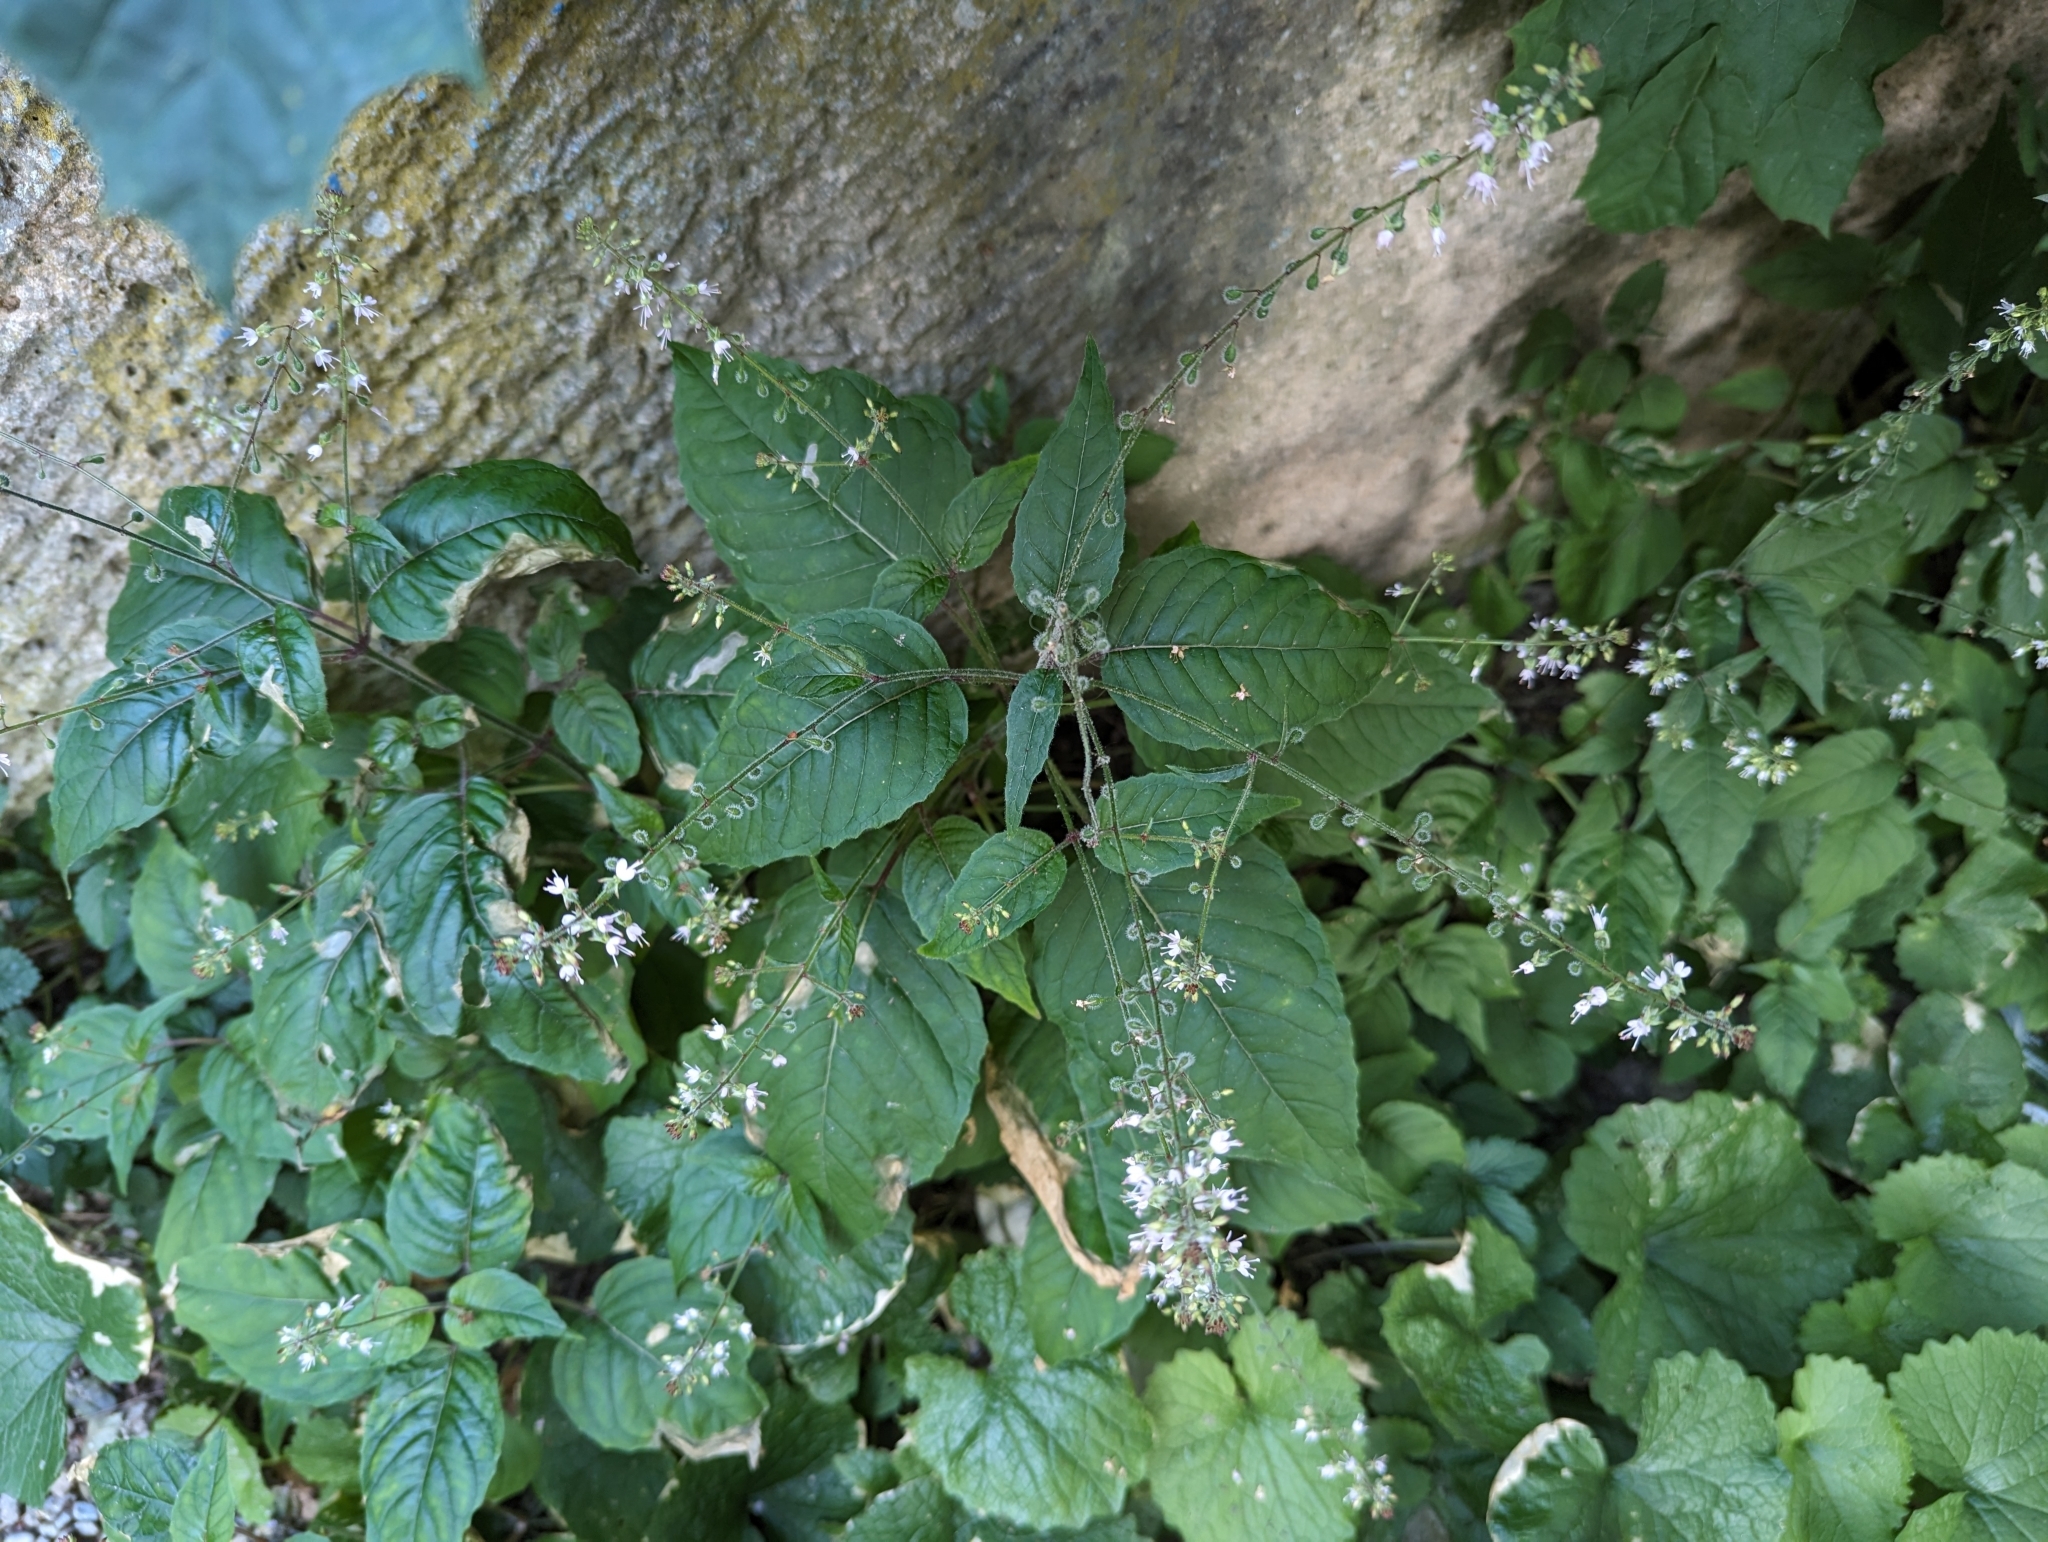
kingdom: Plantae
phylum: Tracheophyta
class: Magnoliopsida
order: Myrtales
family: Onagraceae
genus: Circaea
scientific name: Circaea lutetiana
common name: Enchanter's-nightshade
